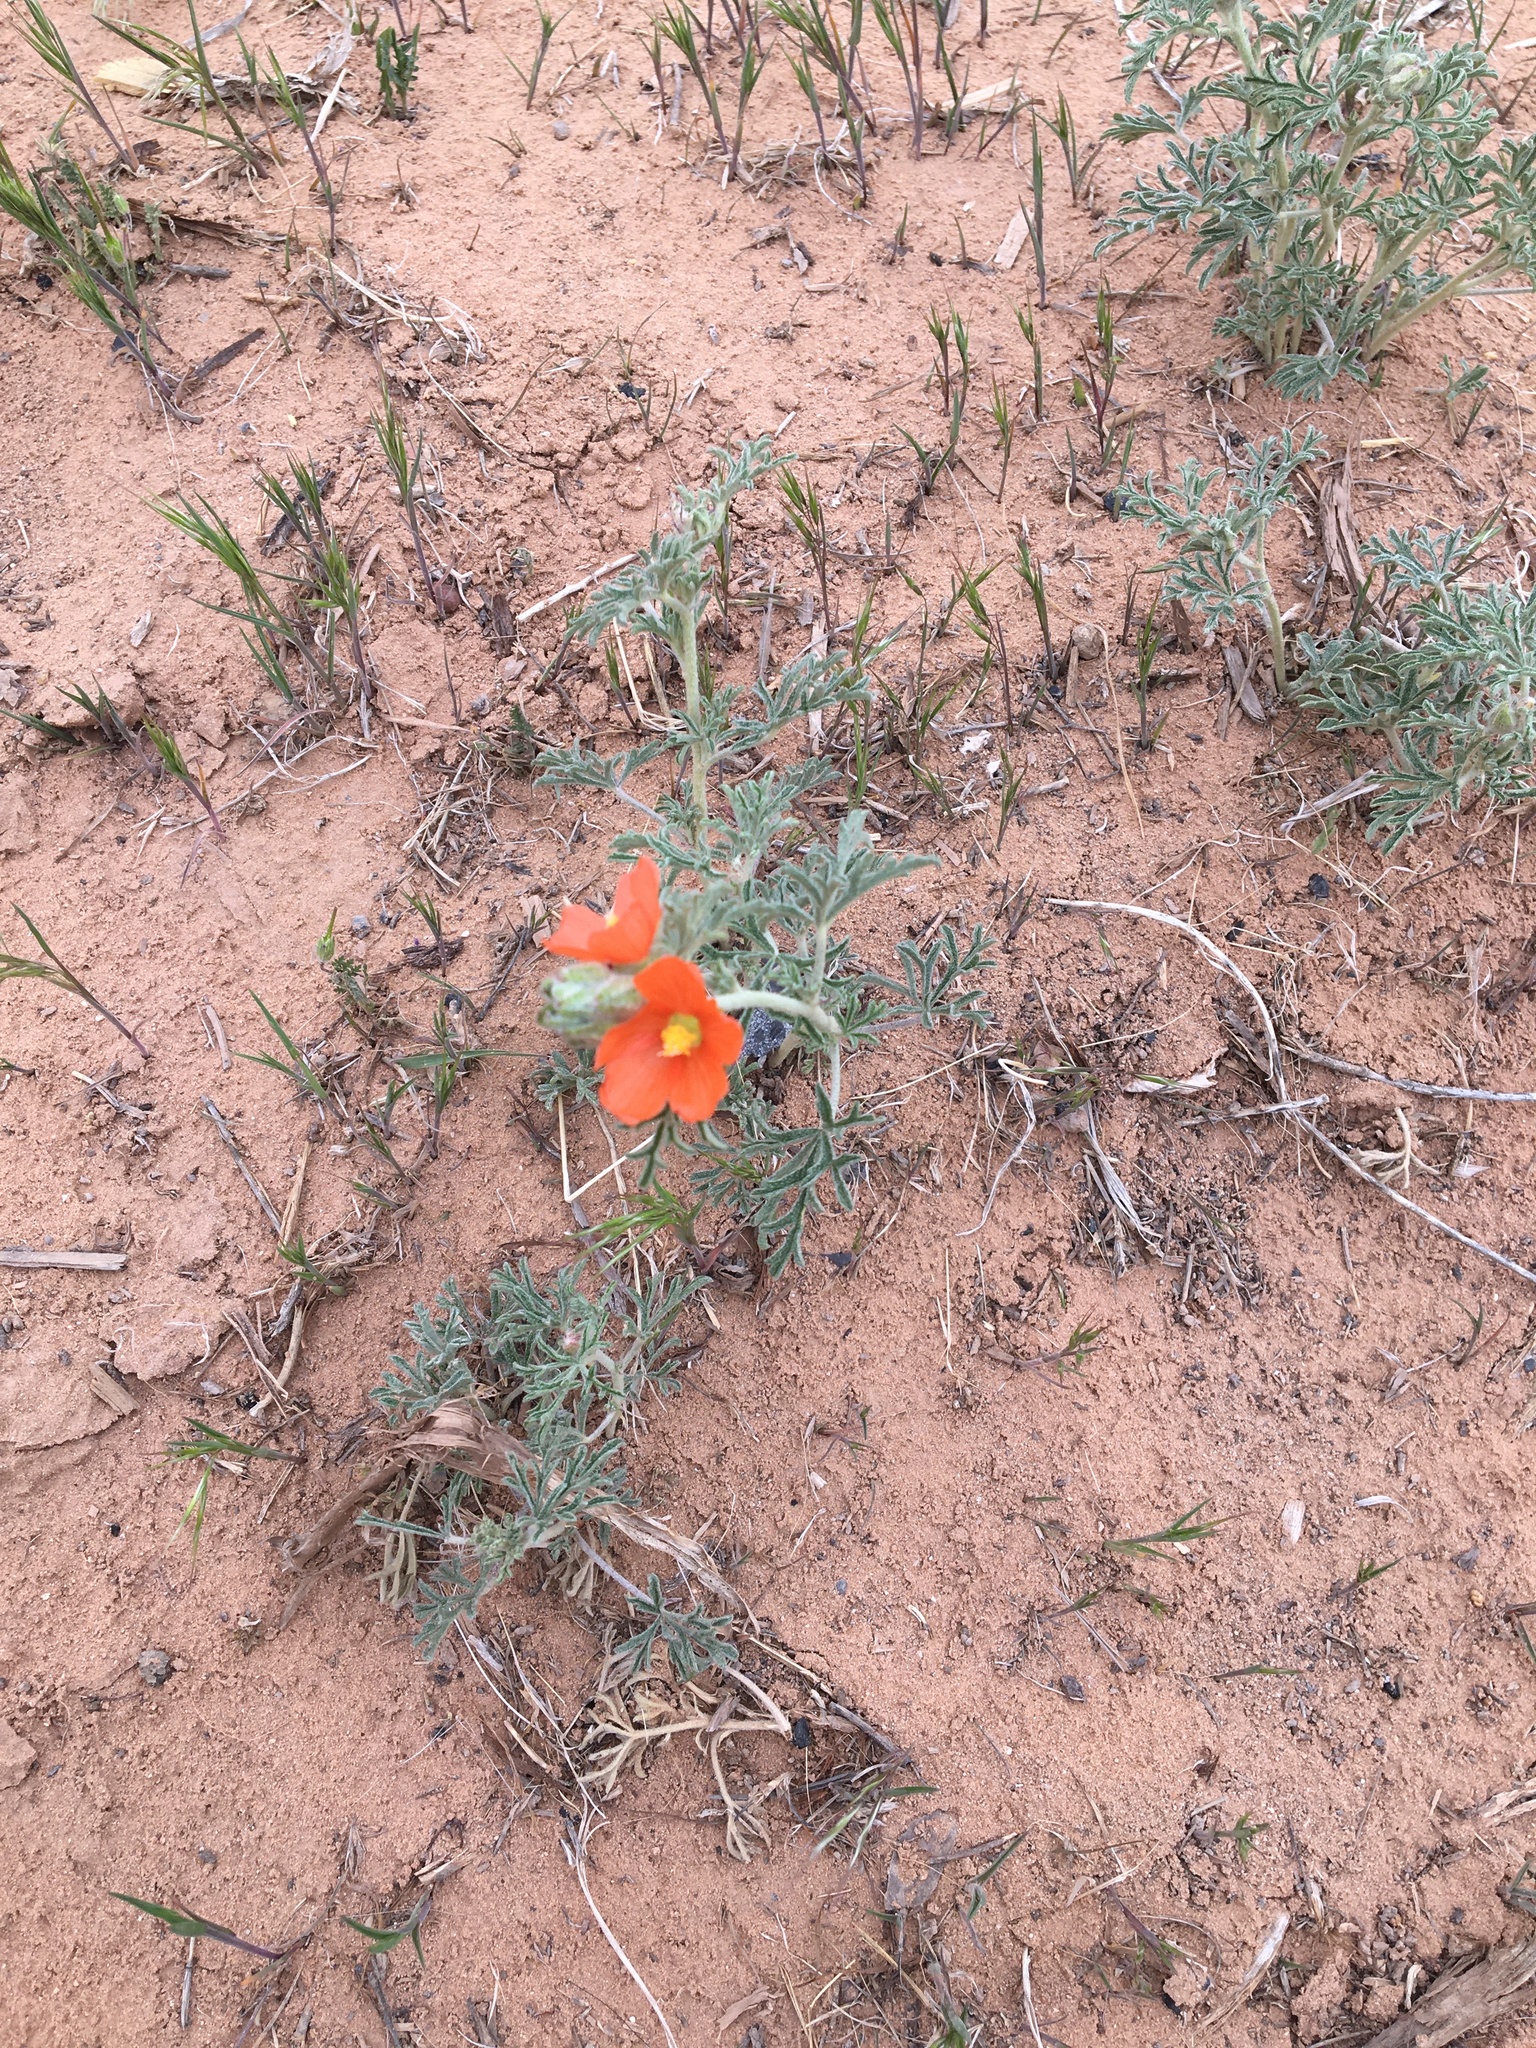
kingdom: Plantae
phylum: Tracheophyta
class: Magnoliopsida
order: Malvales
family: Malvaceae
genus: Sphaeralcea
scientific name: Sphaeralcea coccinea
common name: Moss-rose
